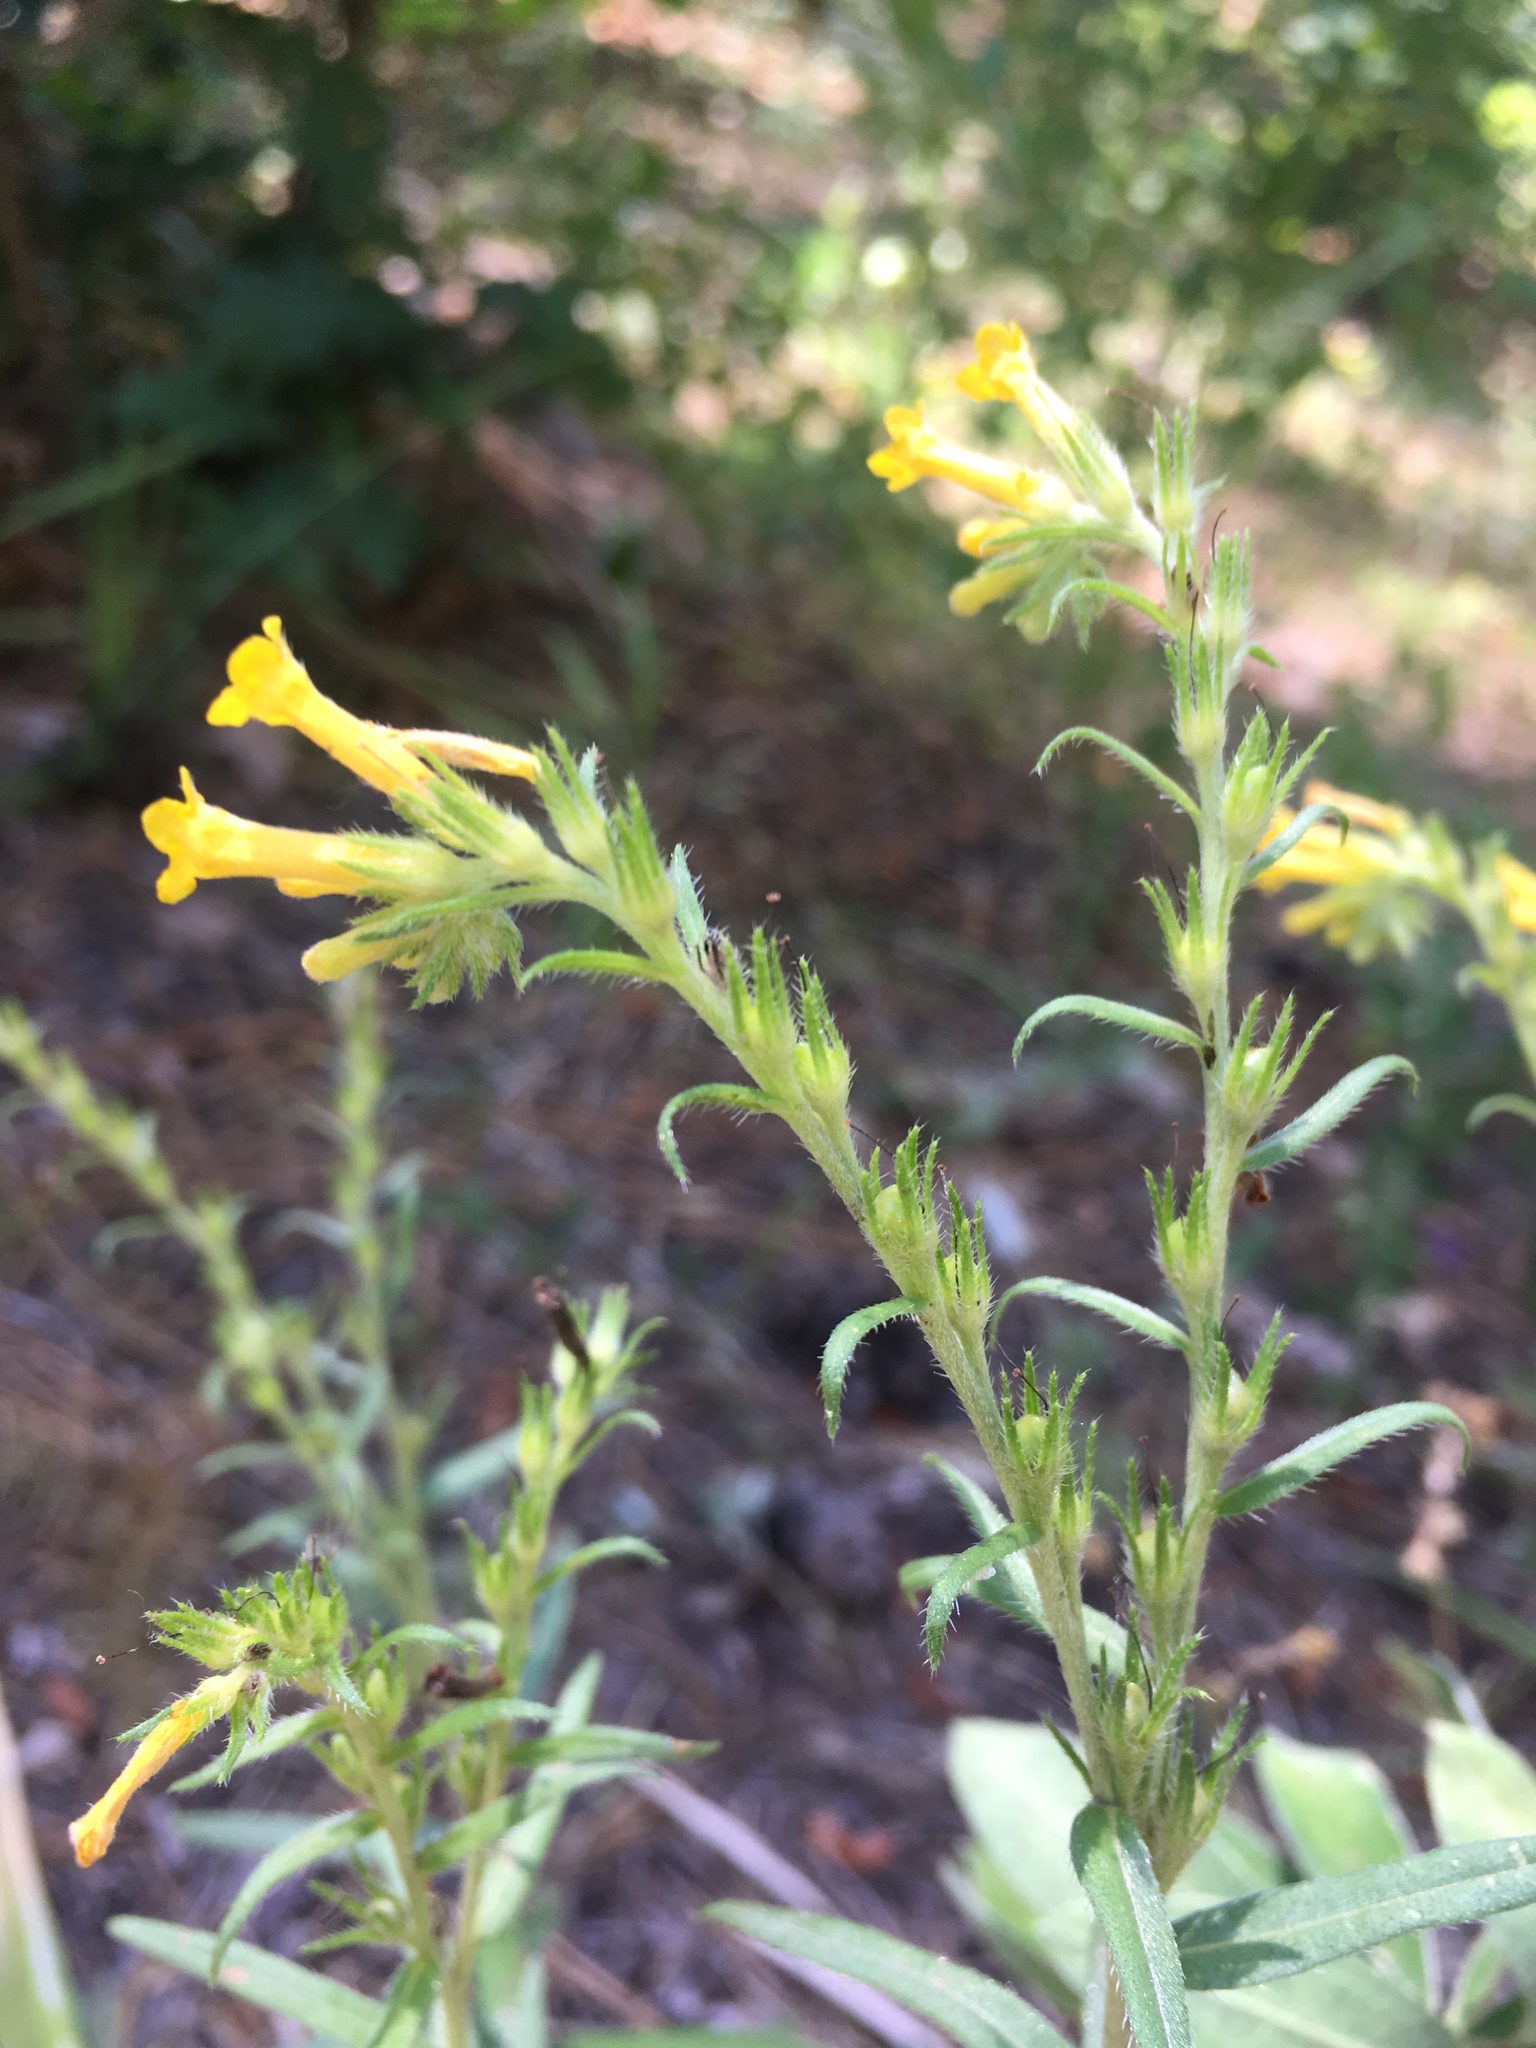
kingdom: Plantae
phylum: Tracheophyta
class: Magnoliopsida
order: Boraginales
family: Boraginaceae
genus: Lithospermum
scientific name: Lithospermum multiflorum
